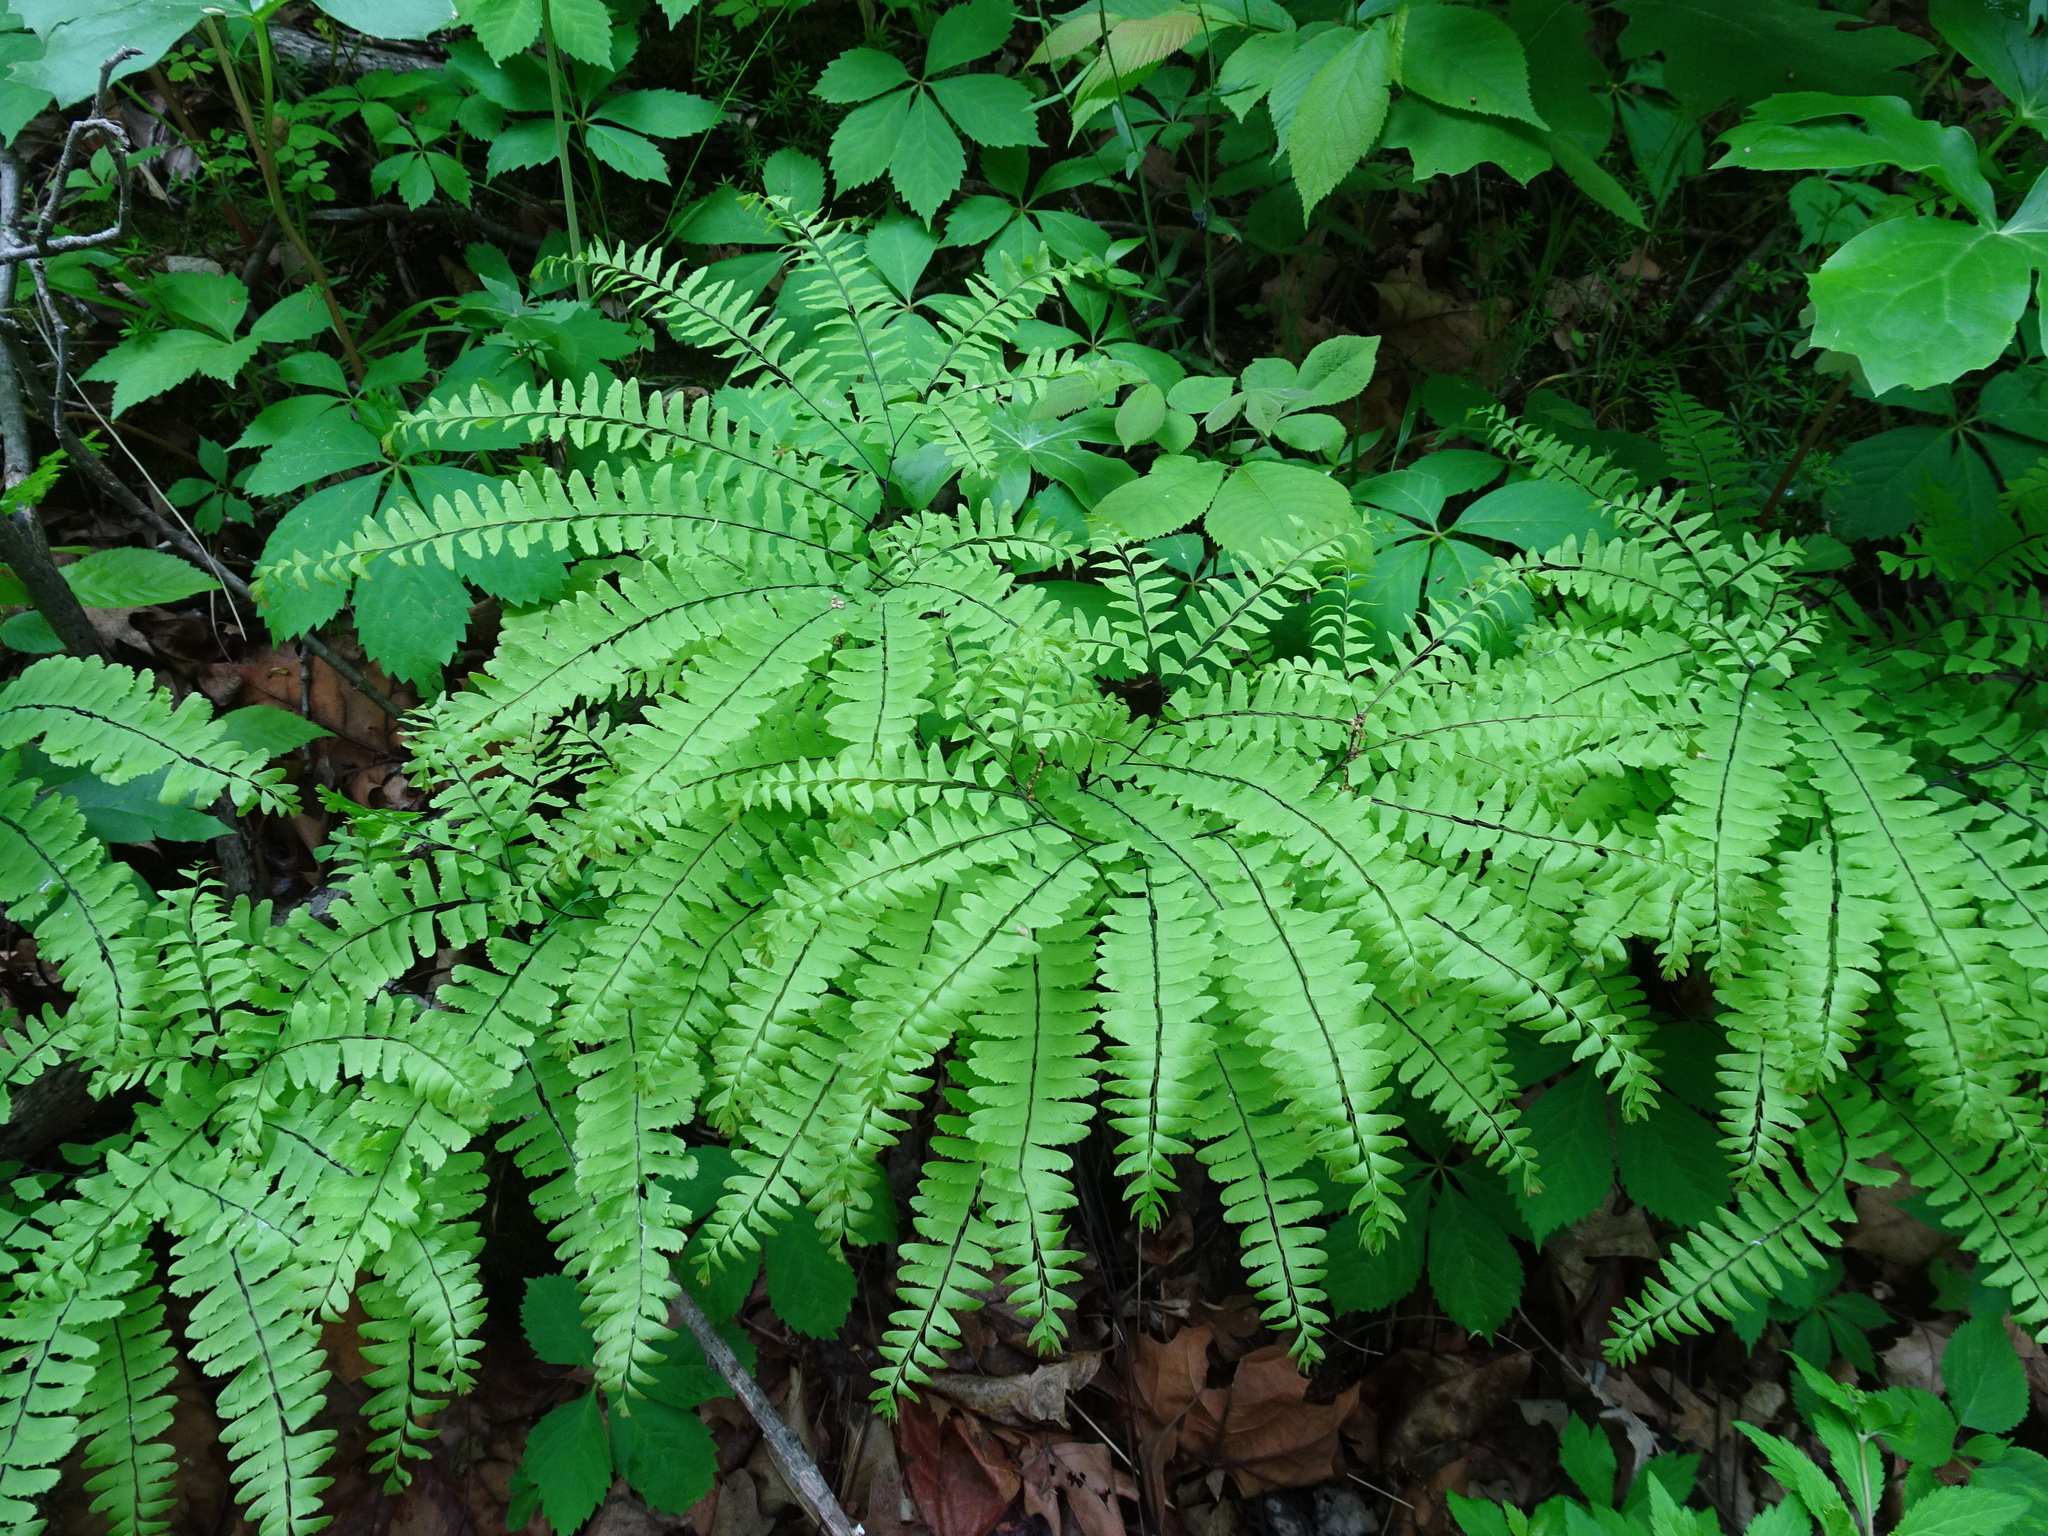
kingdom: Plantae
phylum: Tracheophyta
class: Polypodiopsida
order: Polypodiales
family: Pteridaceae
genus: Adiantum
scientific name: Adiantum pedatum
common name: Five-finger fern
